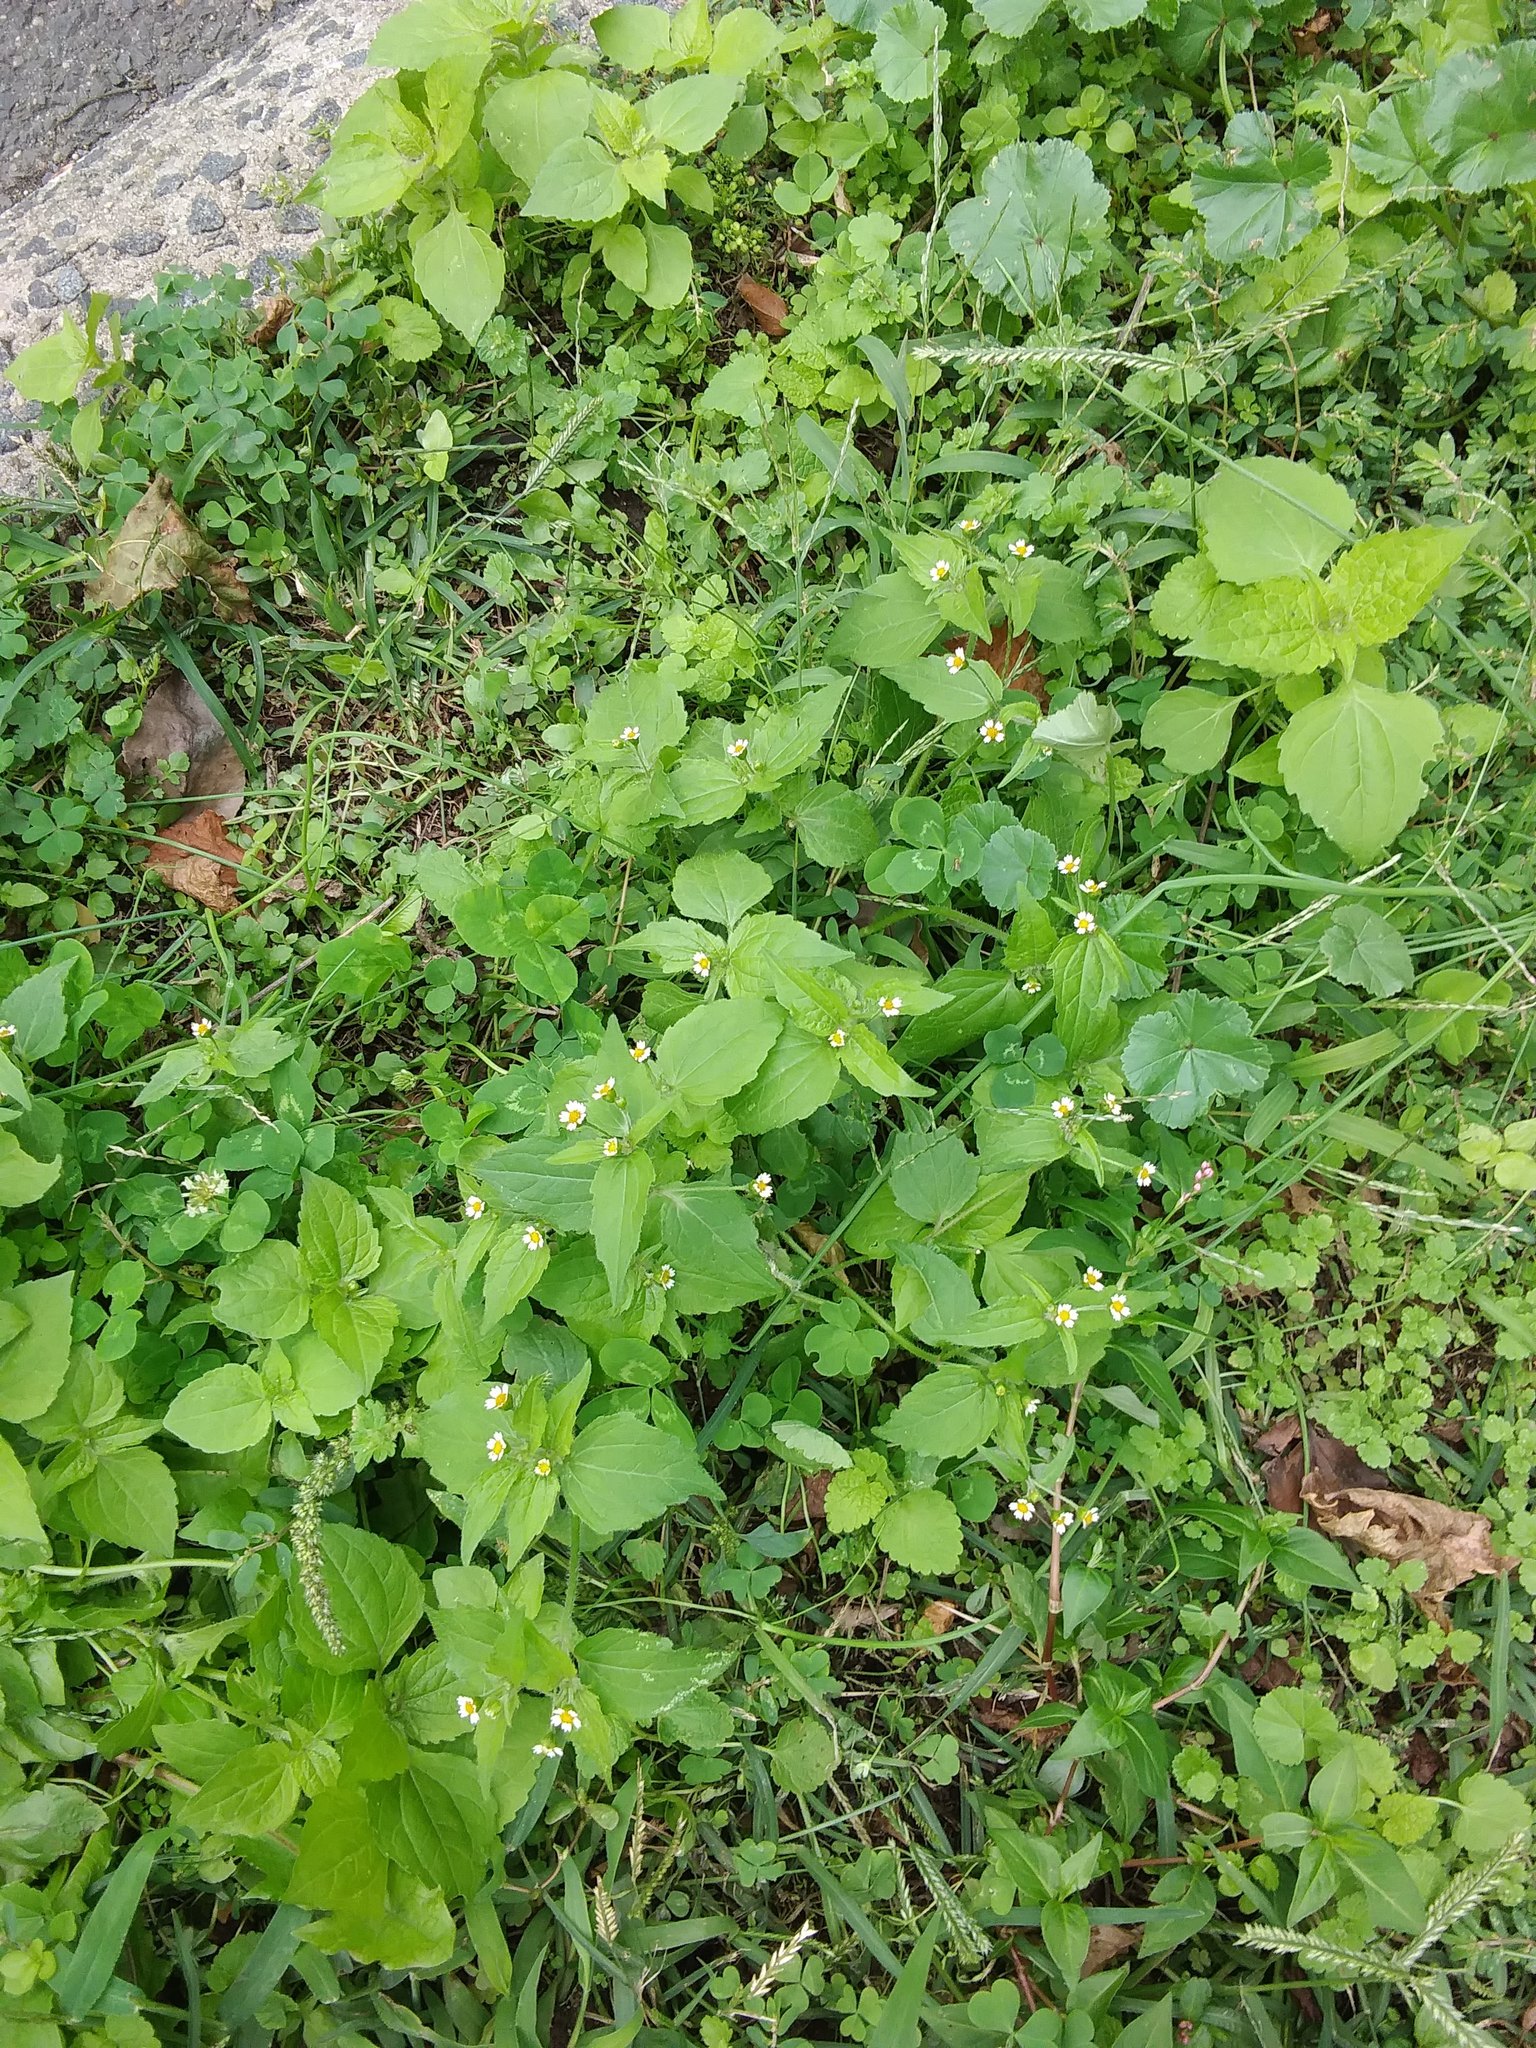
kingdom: Plantae
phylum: Tracheophyta
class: Magnoliopsida
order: Asterales
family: Asteraceae
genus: Galinsoga
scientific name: Galinsoga quadriradiata
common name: Shaggy soldier
